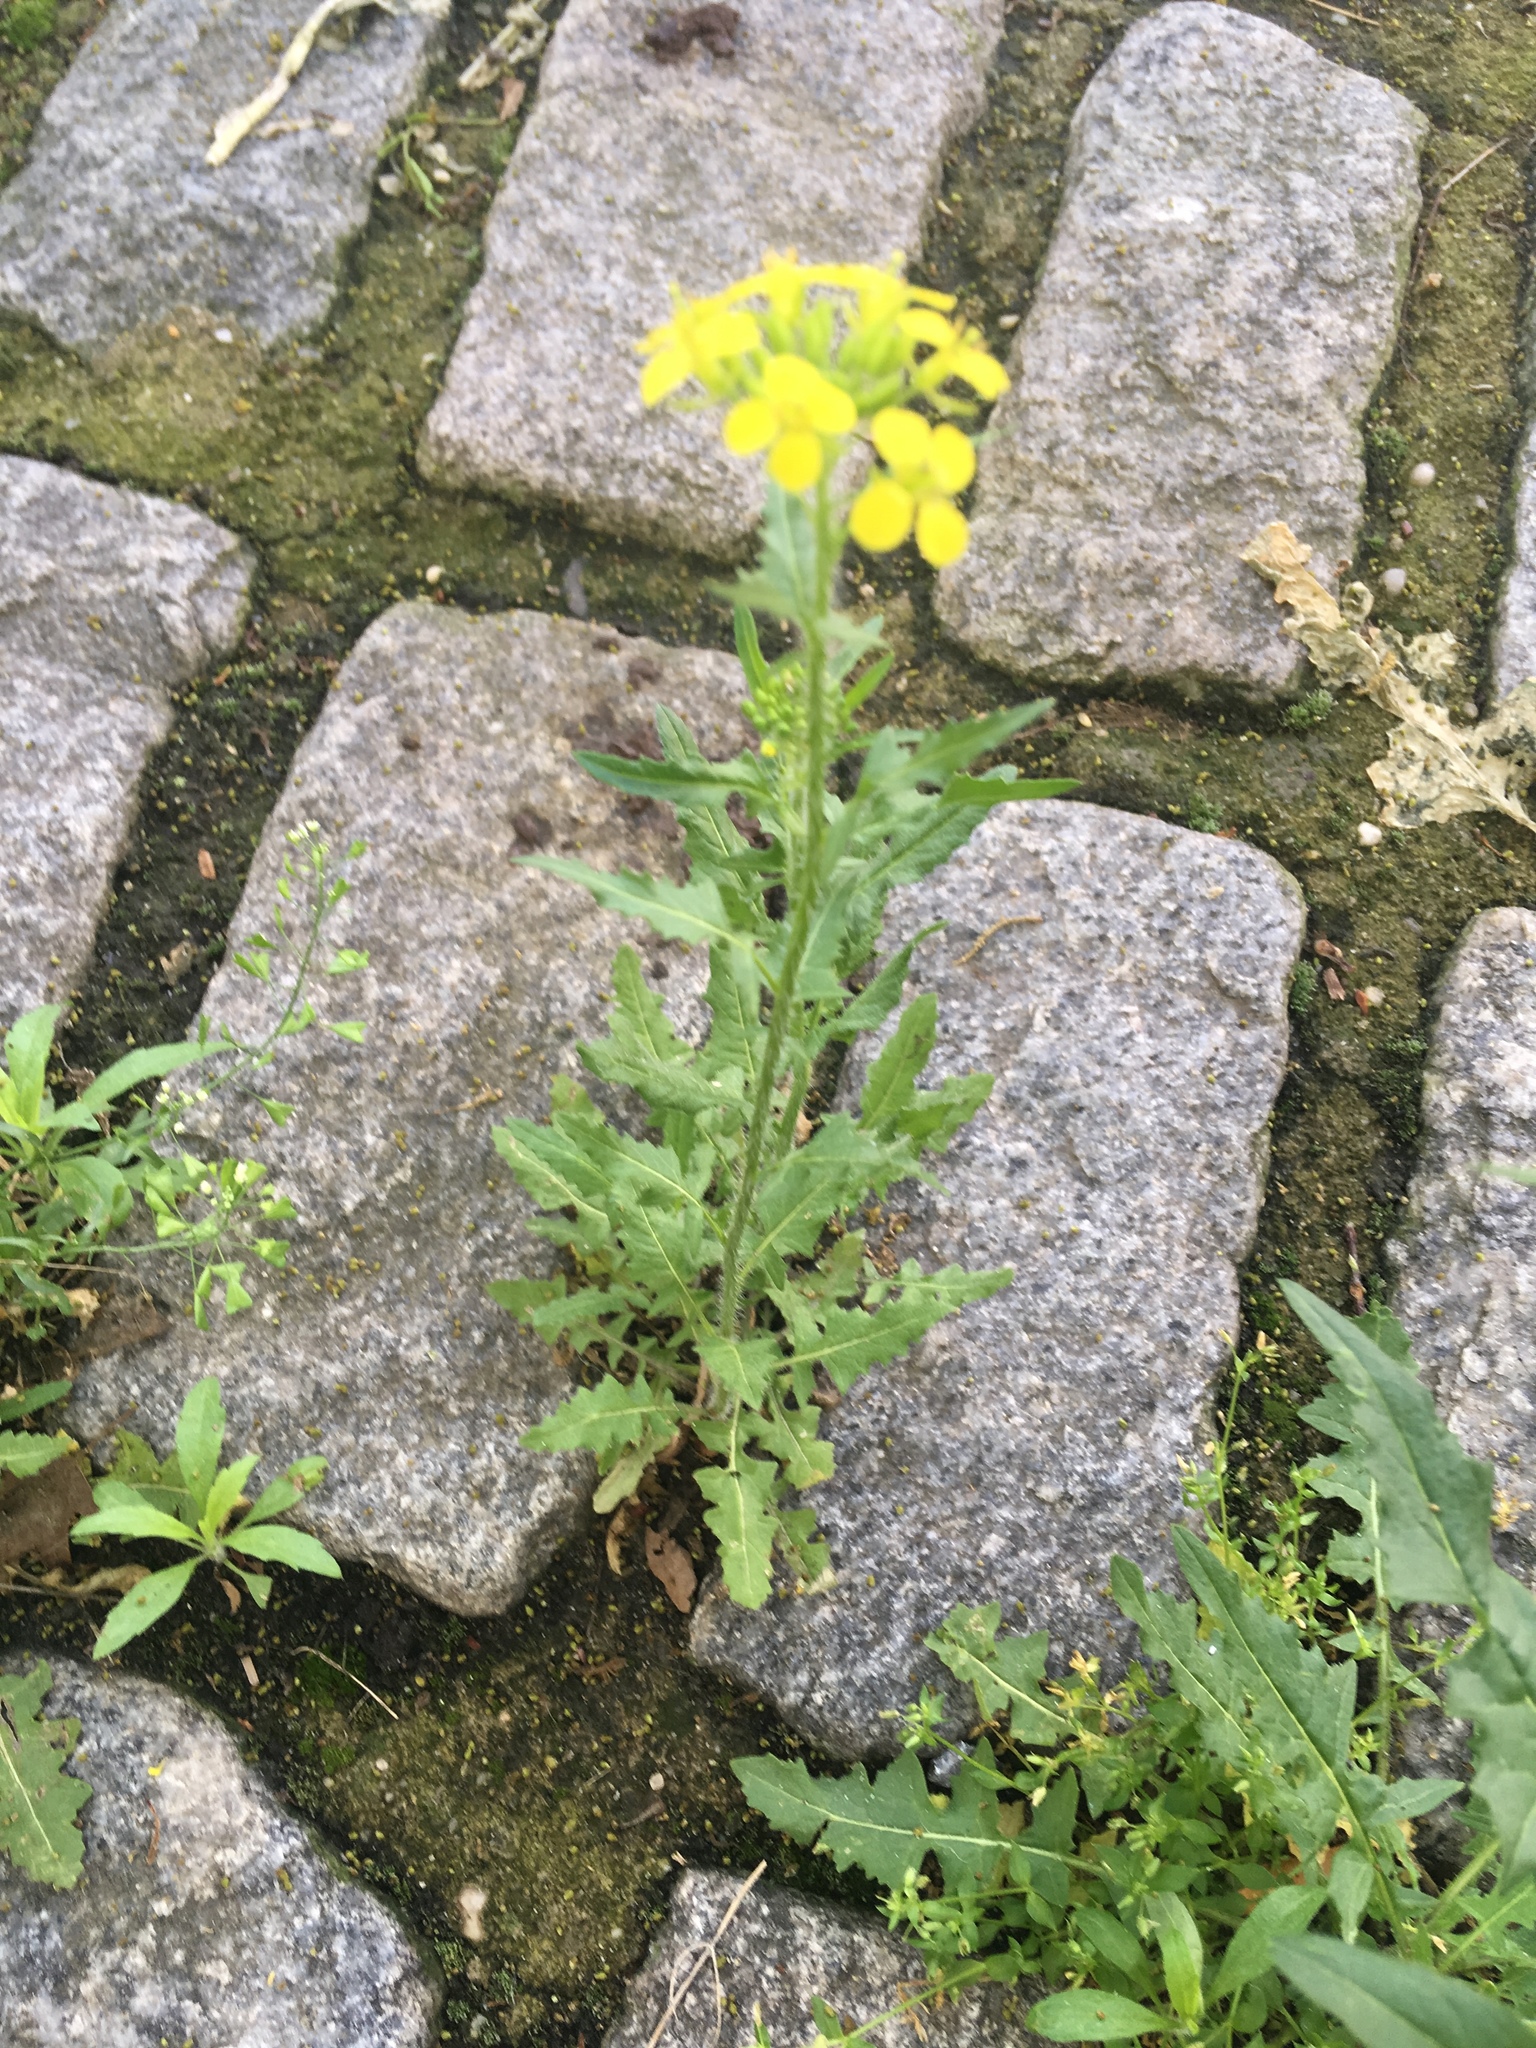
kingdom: Plantae
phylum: Tracheophyta
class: Magnoliopsida
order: Brassicales
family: Brassicaceae
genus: Sisymbrium
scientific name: Sisymbrium loeselii
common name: False london-rocket
